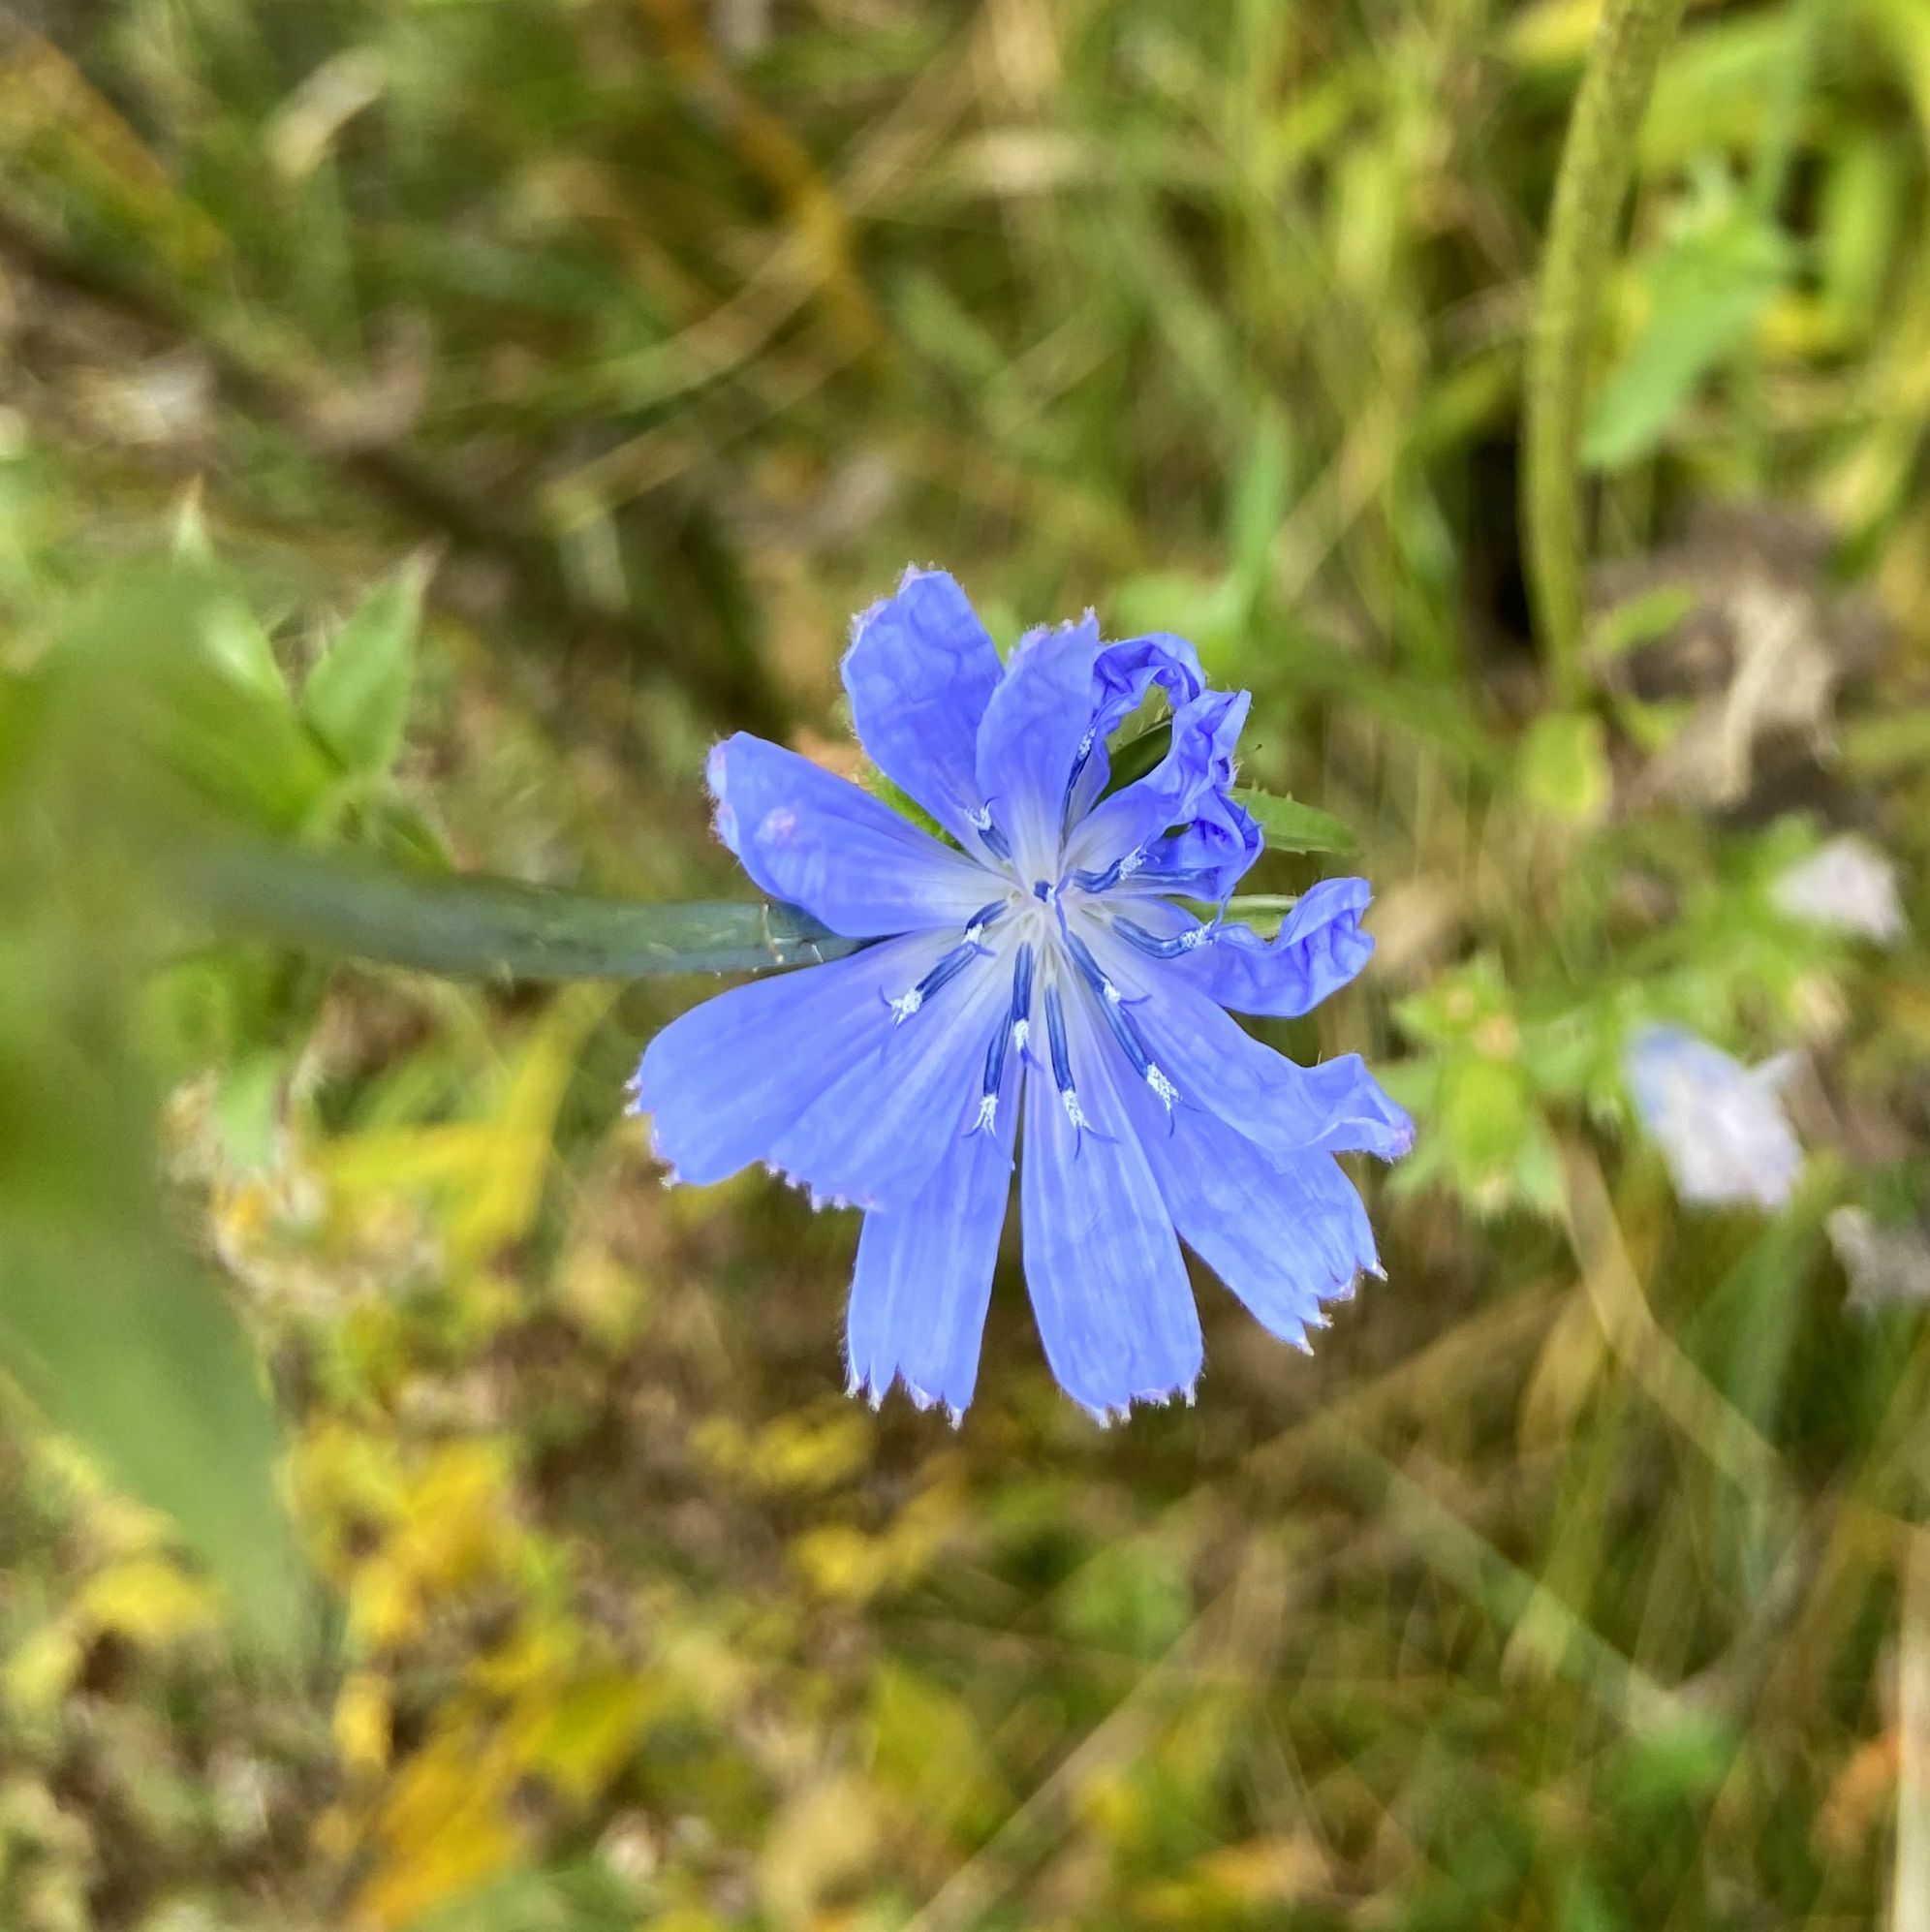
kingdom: Plantae
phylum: Tracheophyta
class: Magnoliopsida
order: Asterales
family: Asteraceae
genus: Cichorium
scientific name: Cichorium intybus
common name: Chicory
